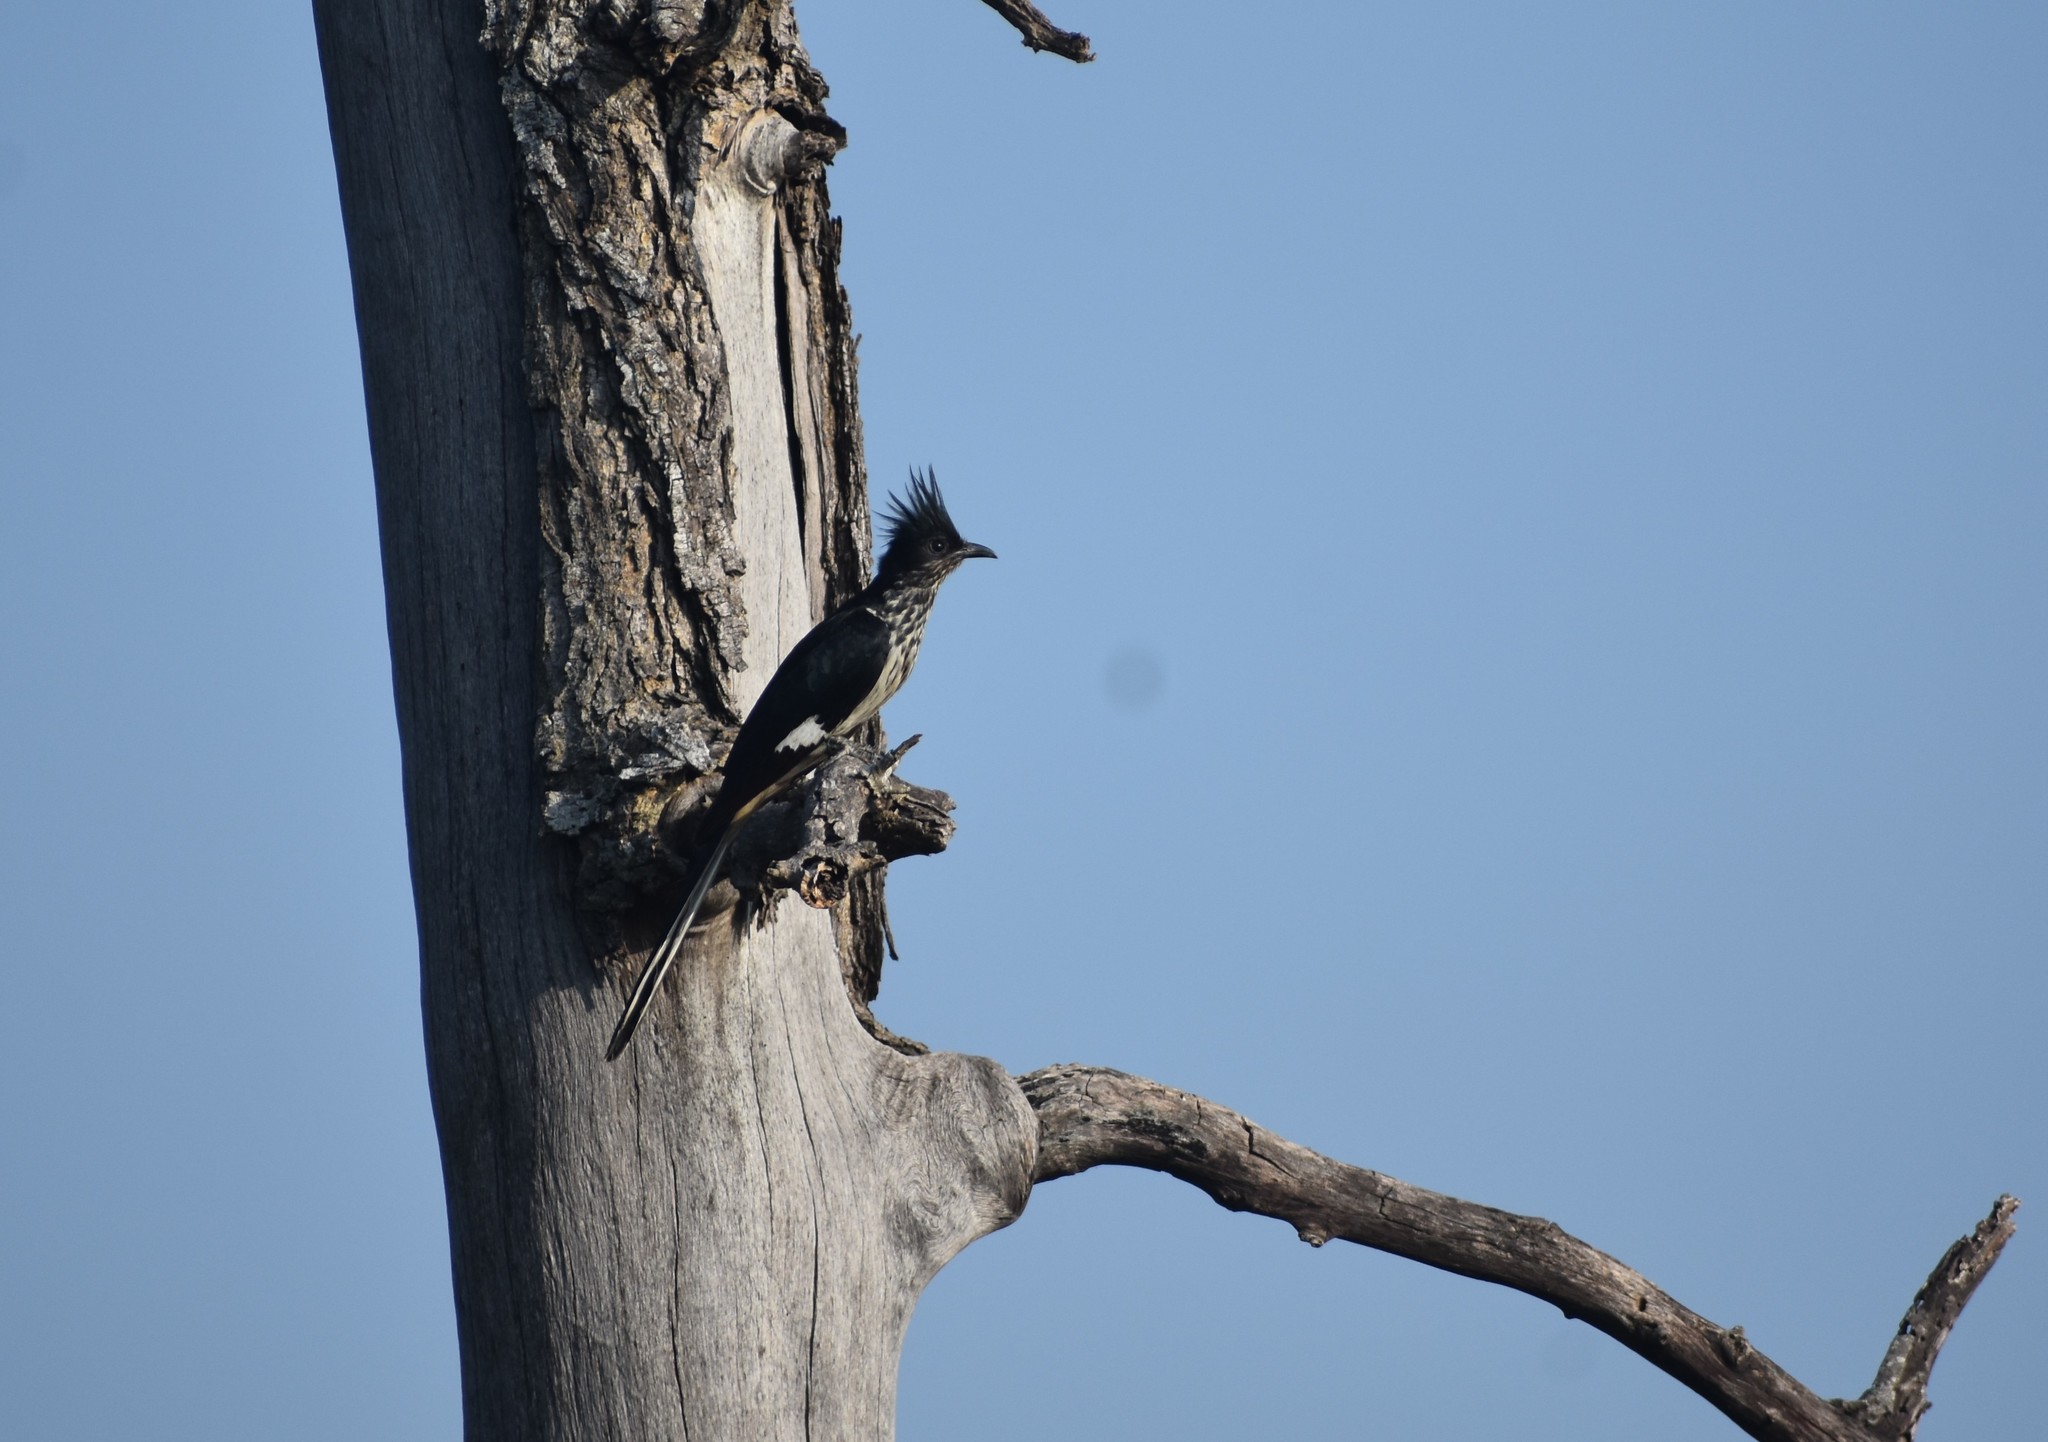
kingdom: Animalia
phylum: Chordata
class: Aves
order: Cuculiformes
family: Cuculidae
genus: Clamator
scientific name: Clamator levaillantii
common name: Levaillant's cuckoo
